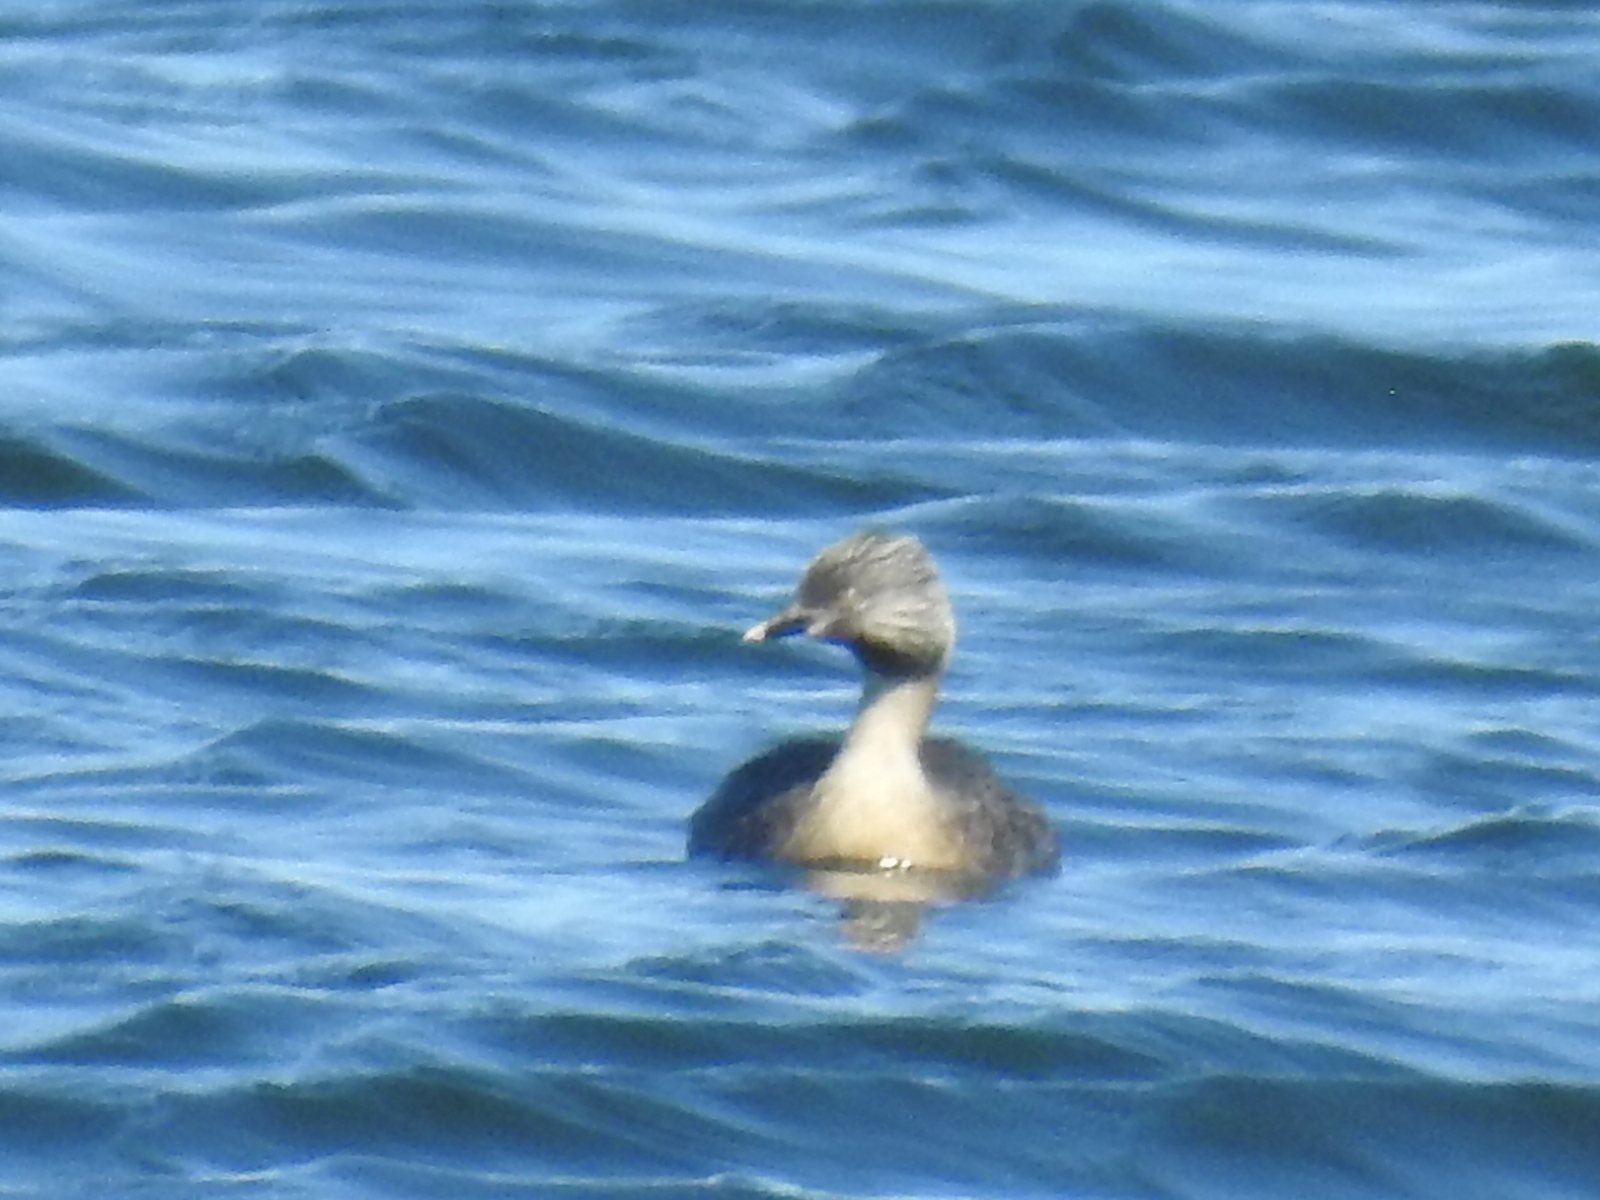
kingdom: Animalia
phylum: Chordata
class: Aves
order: Podicipediformes
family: Podicipedidae
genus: Poliocephalus
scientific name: Poliocephalus poliocephalus
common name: Hoary-headed grebe
